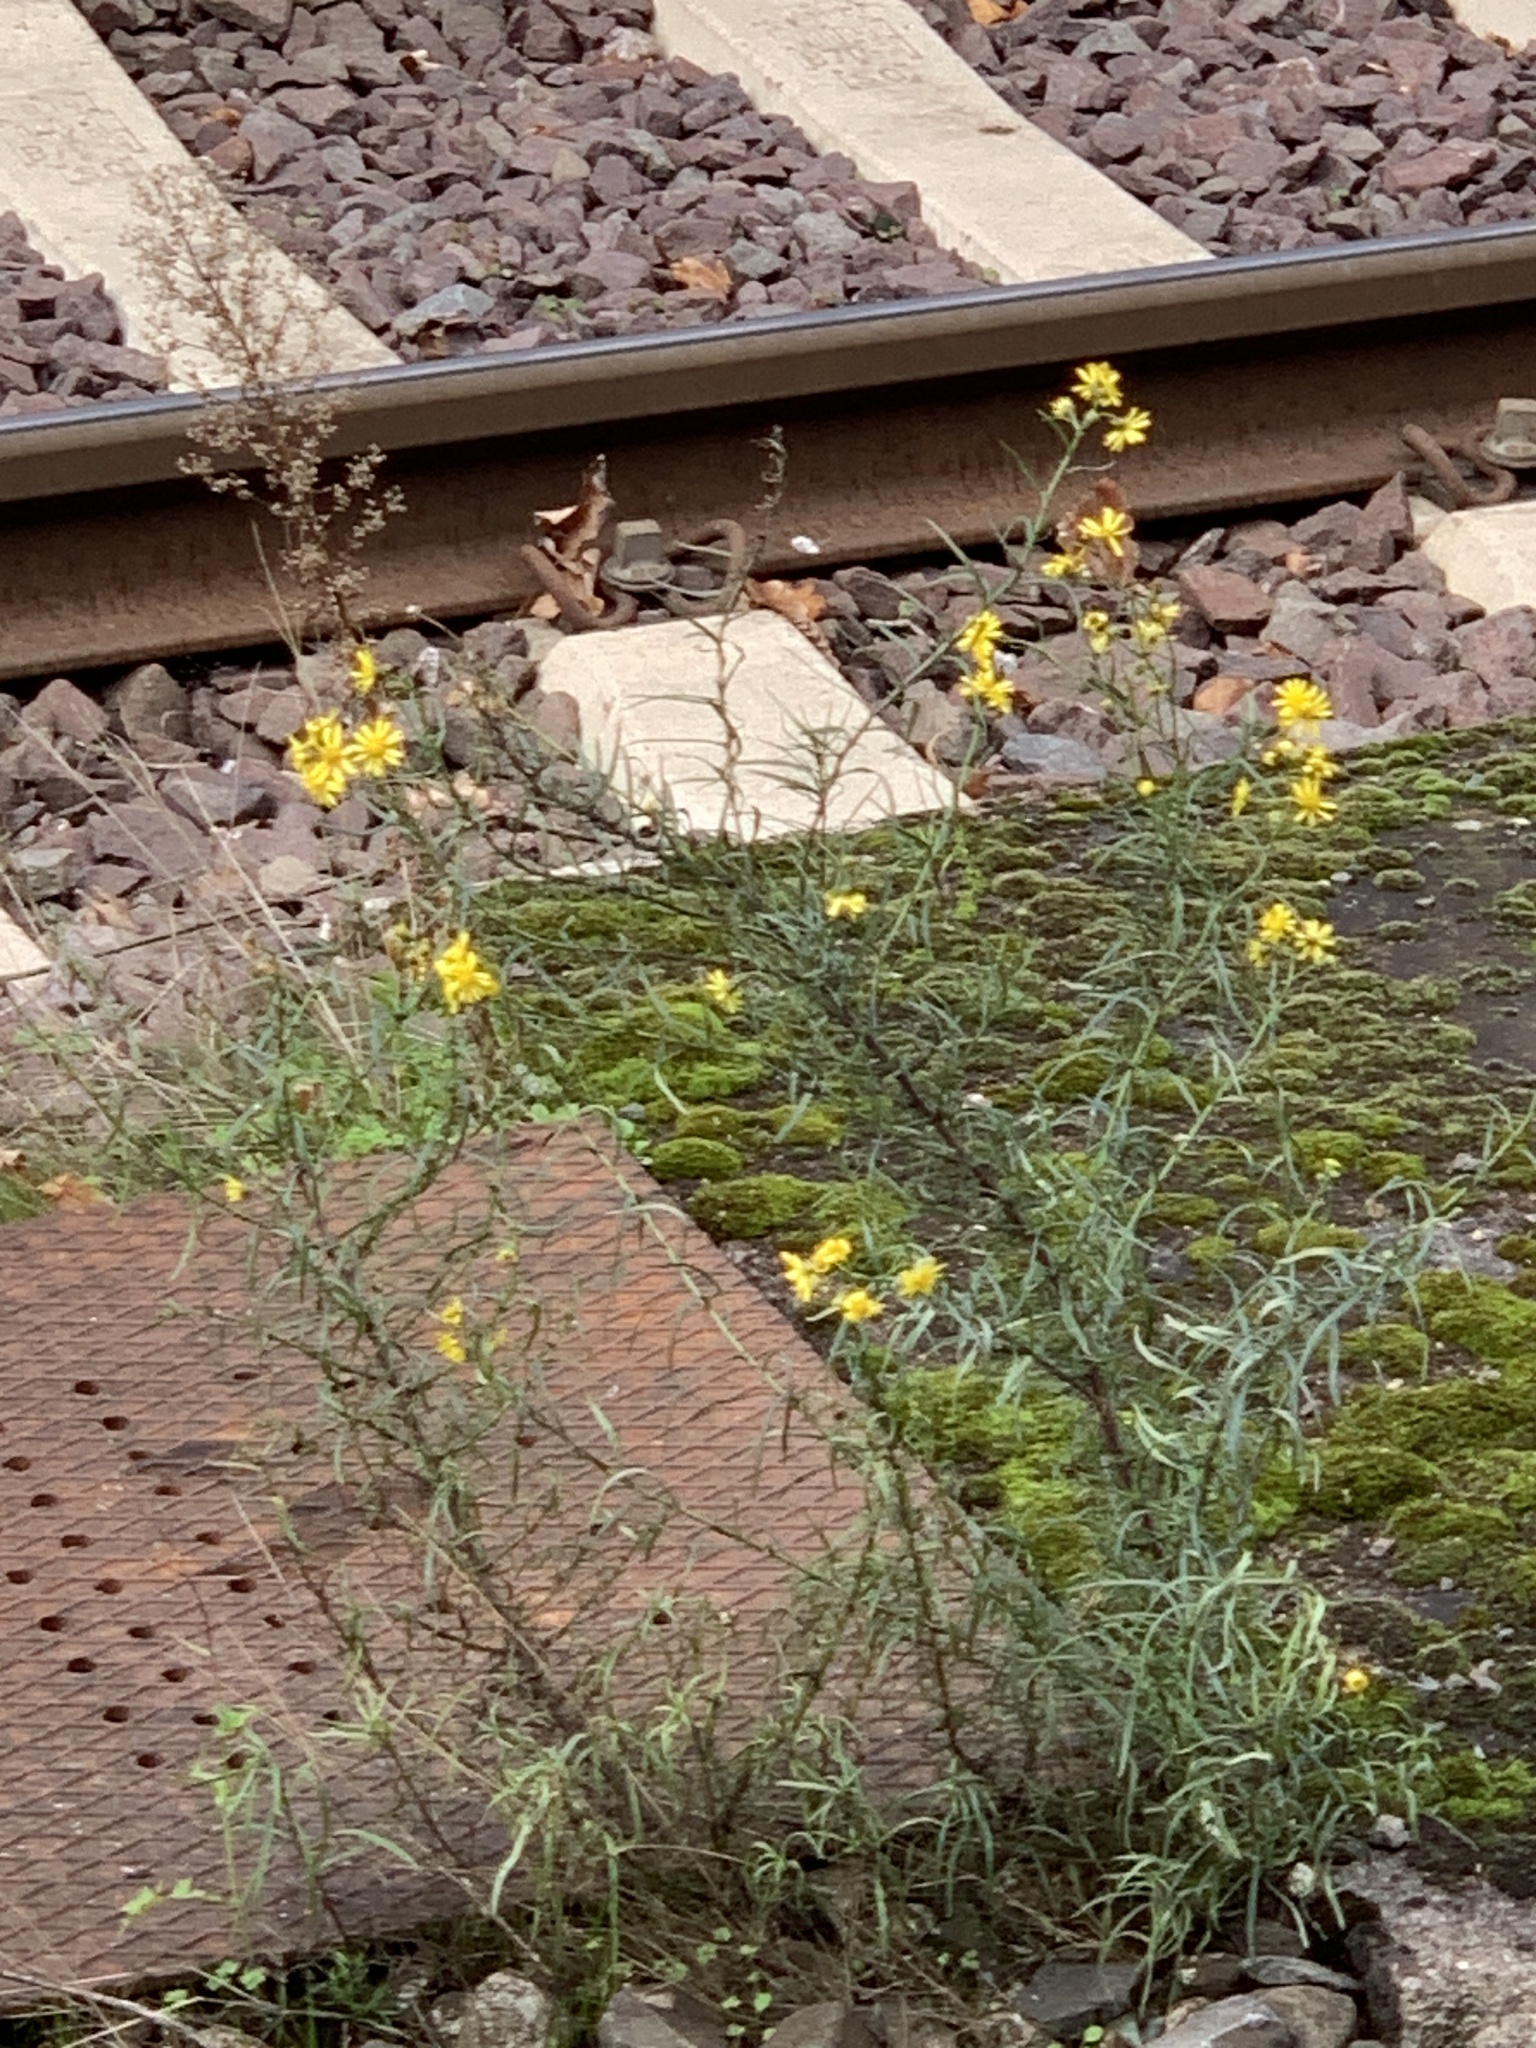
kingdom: Plantae
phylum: Tracheophyta
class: Magnoliopsida
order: Asterales
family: Asteraceae
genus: Senecio
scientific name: Senecio inaequidens
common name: Narrow-leaved ragwort
